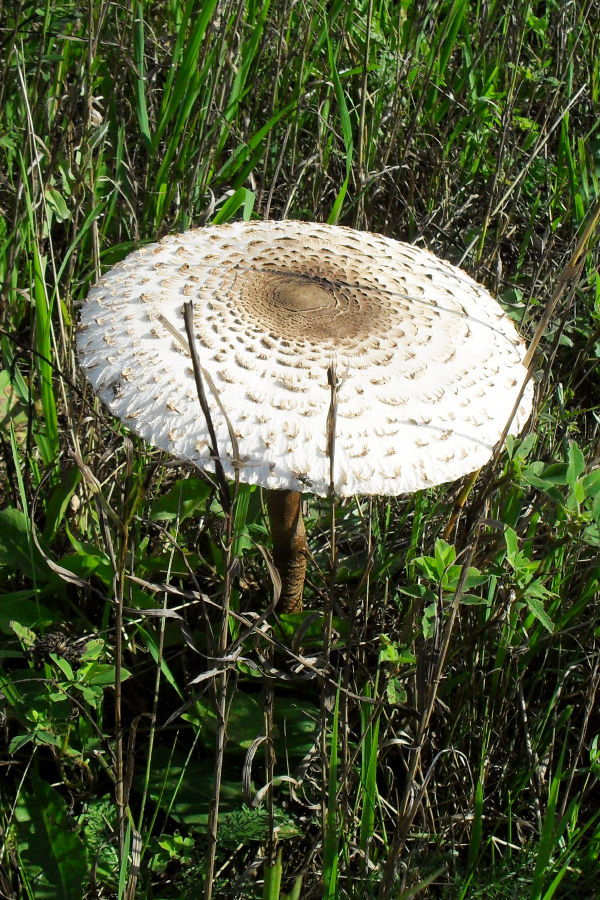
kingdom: Fungi
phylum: Basidiomycota
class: Agaricomycetes
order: Agaricales
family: Agaricaceae
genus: Macrolepiota
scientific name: Macrolepiota procera
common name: Parasol
